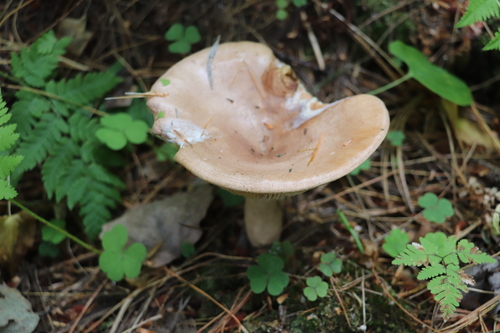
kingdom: Fungi
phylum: Basidiomycota
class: Agaricomycetes
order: Russulales
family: Russulaceae
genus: Lactarius
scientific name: Lactarius vietus
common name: Grey milk-cap
